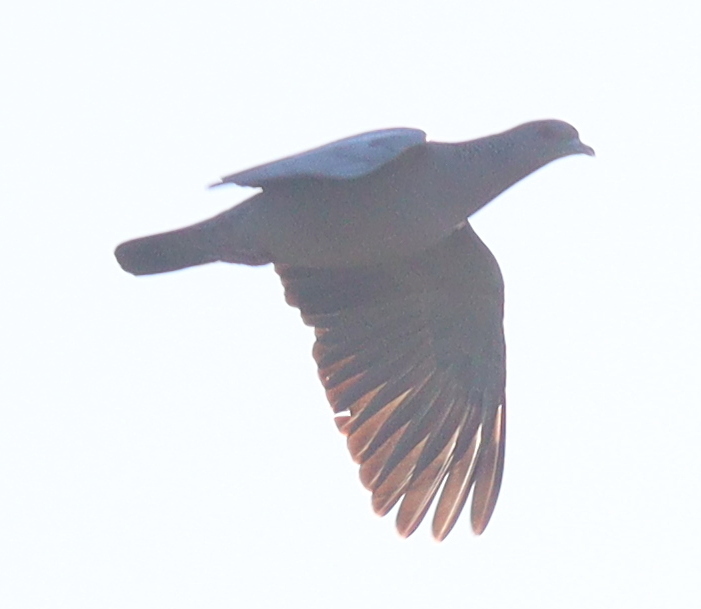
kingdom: Animalia
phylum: Chordata
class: Aves
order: Columbiformes
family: Columbidae
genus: Patagioenas
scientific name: Patagioenas picazuro
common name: Picazuro pigeon
